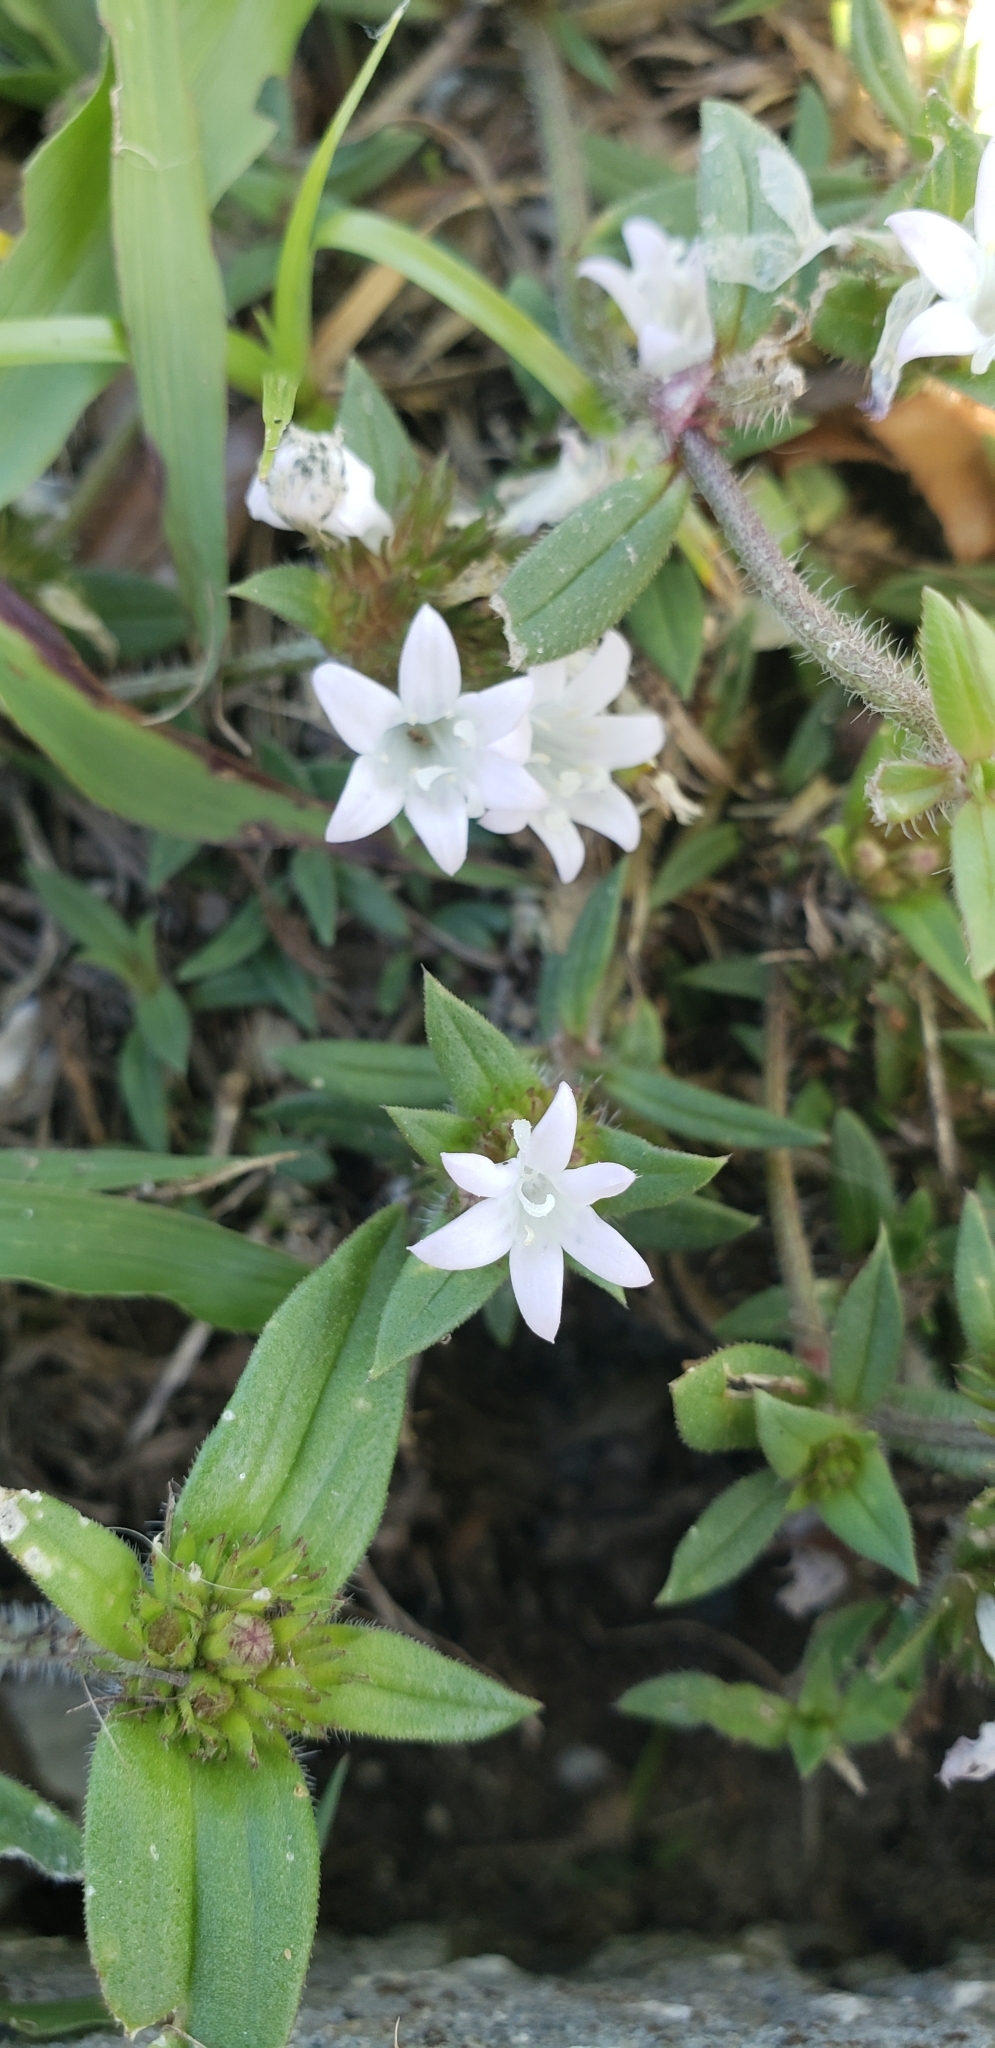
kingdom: Plantae
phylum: Tracheophyta
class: Magnoliopsida
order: Gentianales
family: Rubiaceae
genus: Richardia
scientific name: Richardia grandiflora
